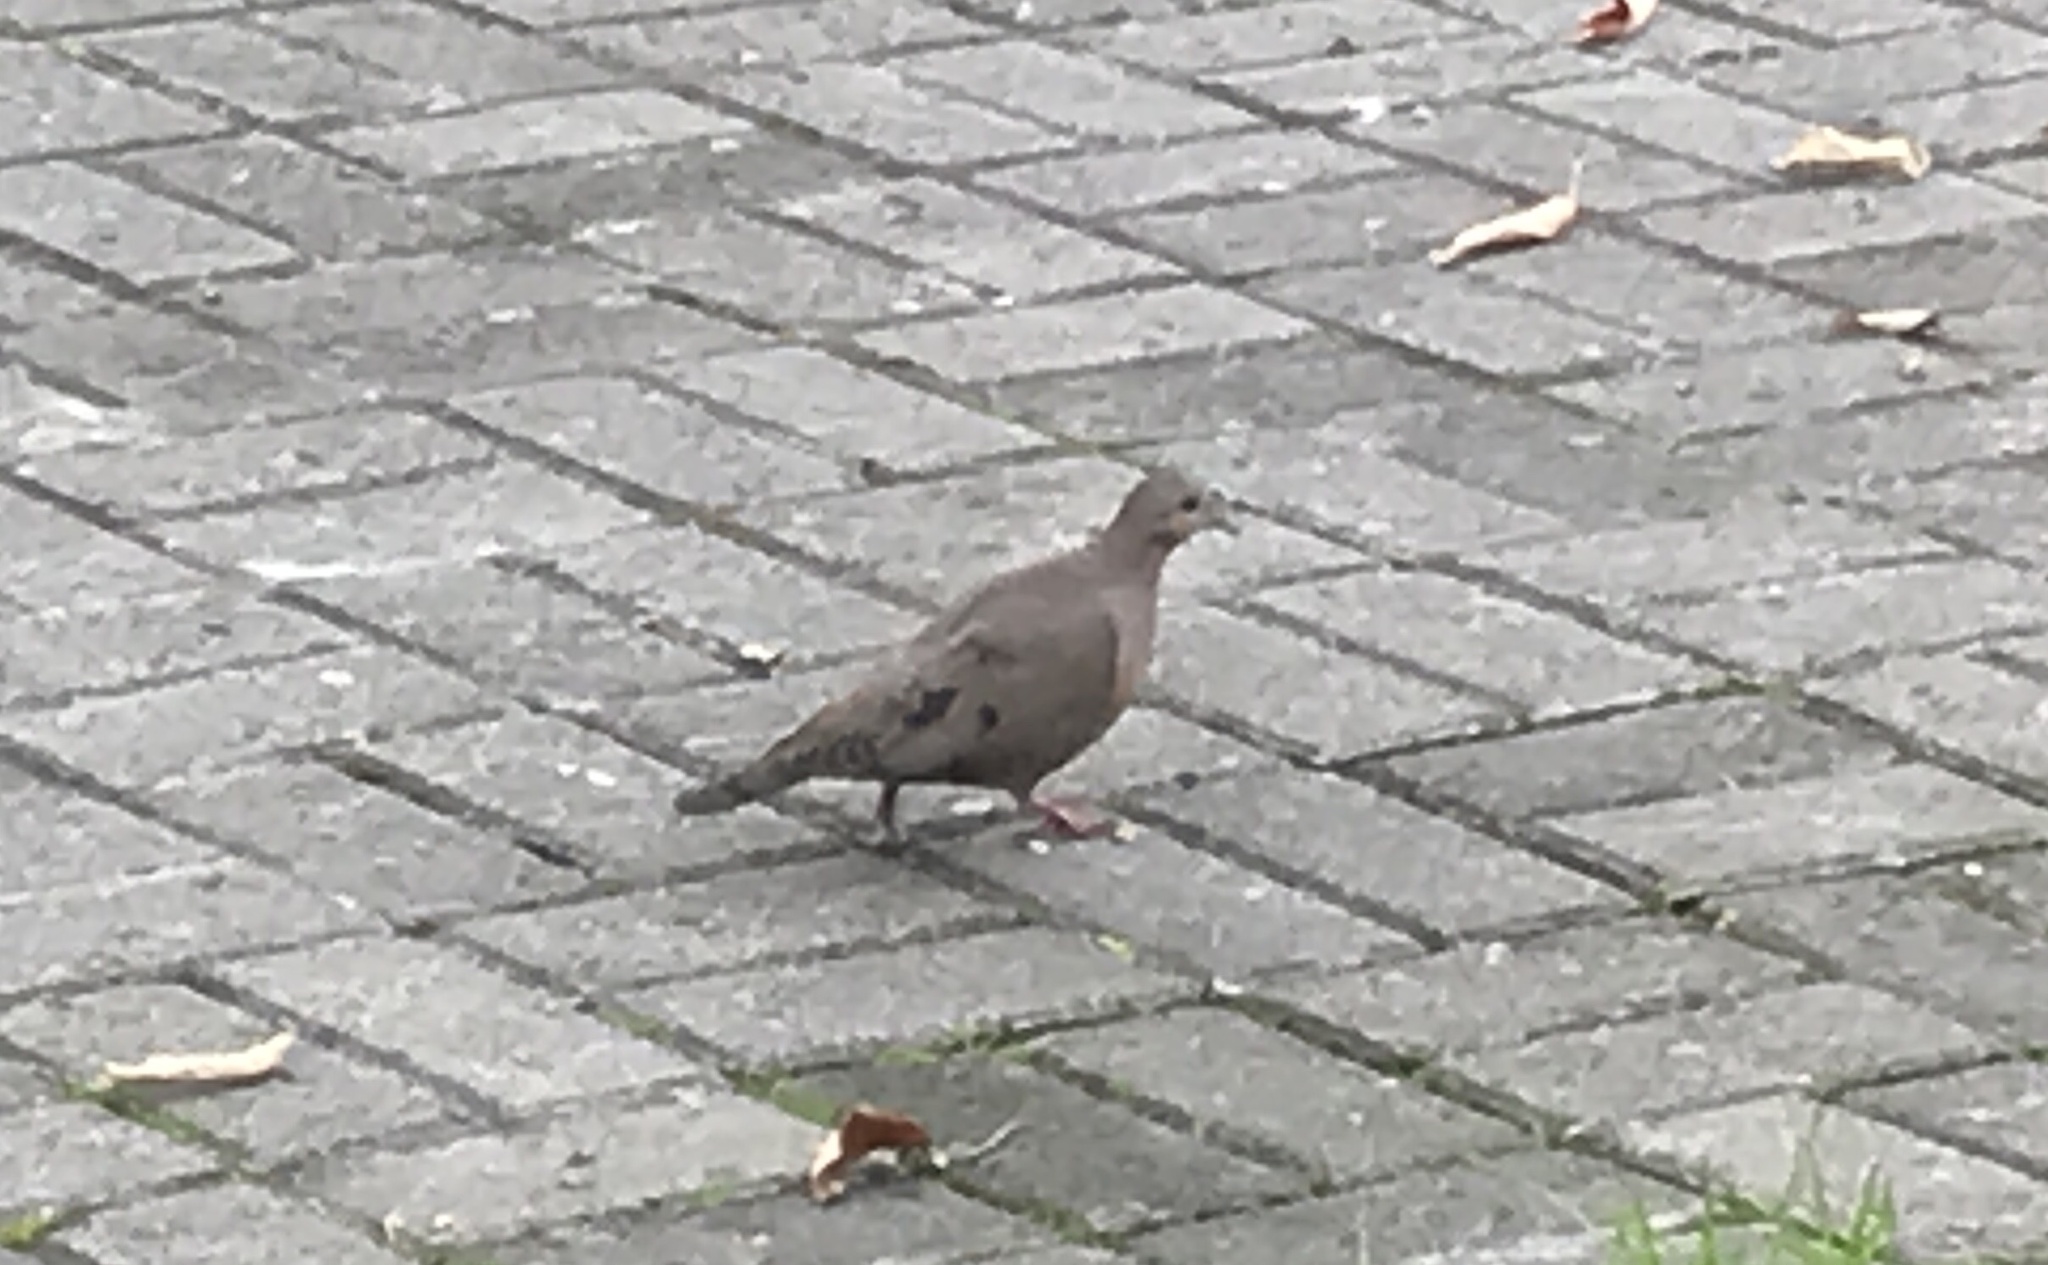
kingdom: Animalia
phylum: Chordata
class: Aves
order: Columbiformes
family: Columbidae
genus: Zenaida
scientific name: Zenaida auriculata
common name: Eared dove
